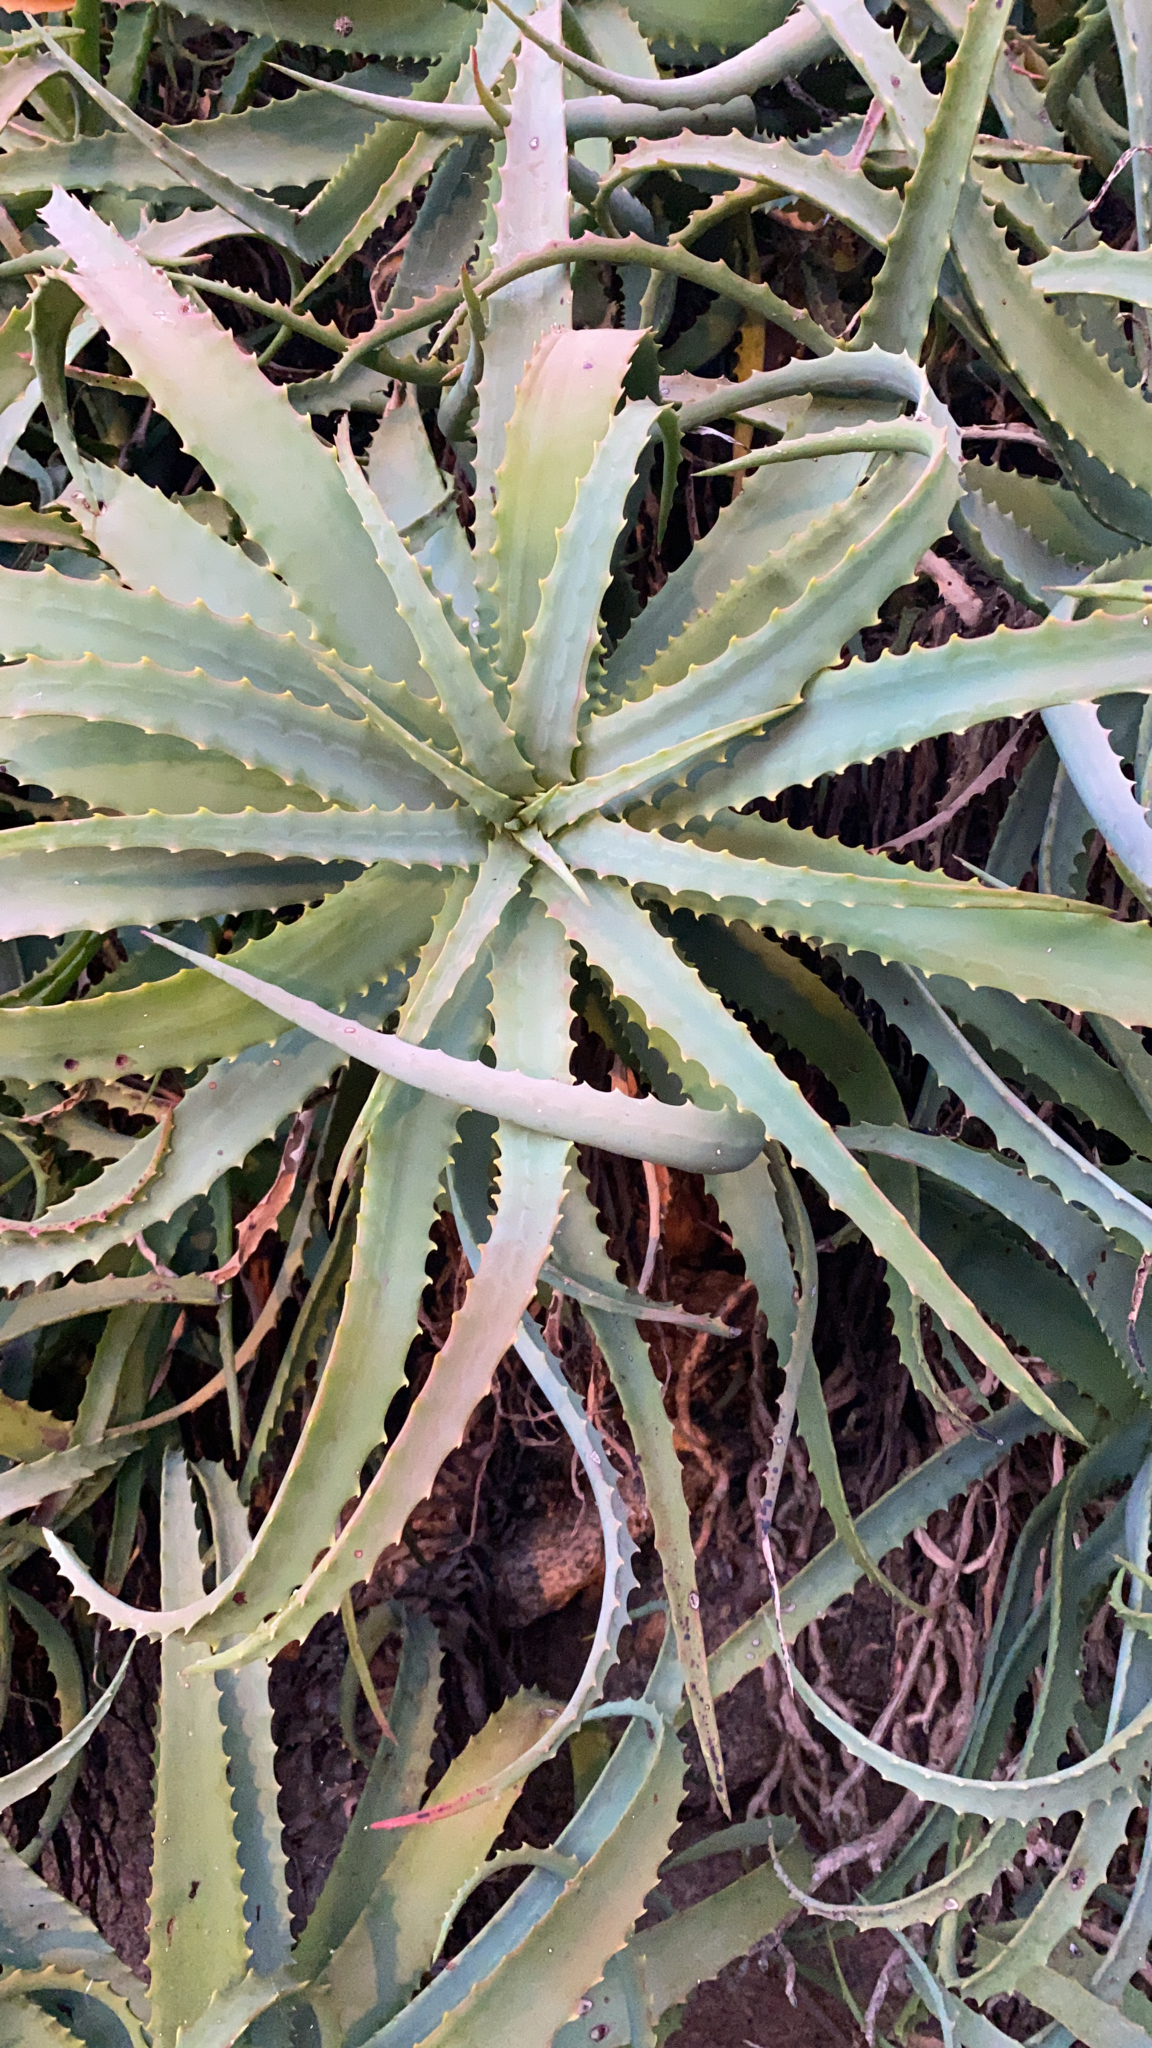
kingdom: Plantae
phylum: Tracheophyta
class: Liliopsida
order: Asparagales
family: Asphodelaceae
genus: Aloe
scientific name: Aloe arborescens
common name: Candelabra aloe
